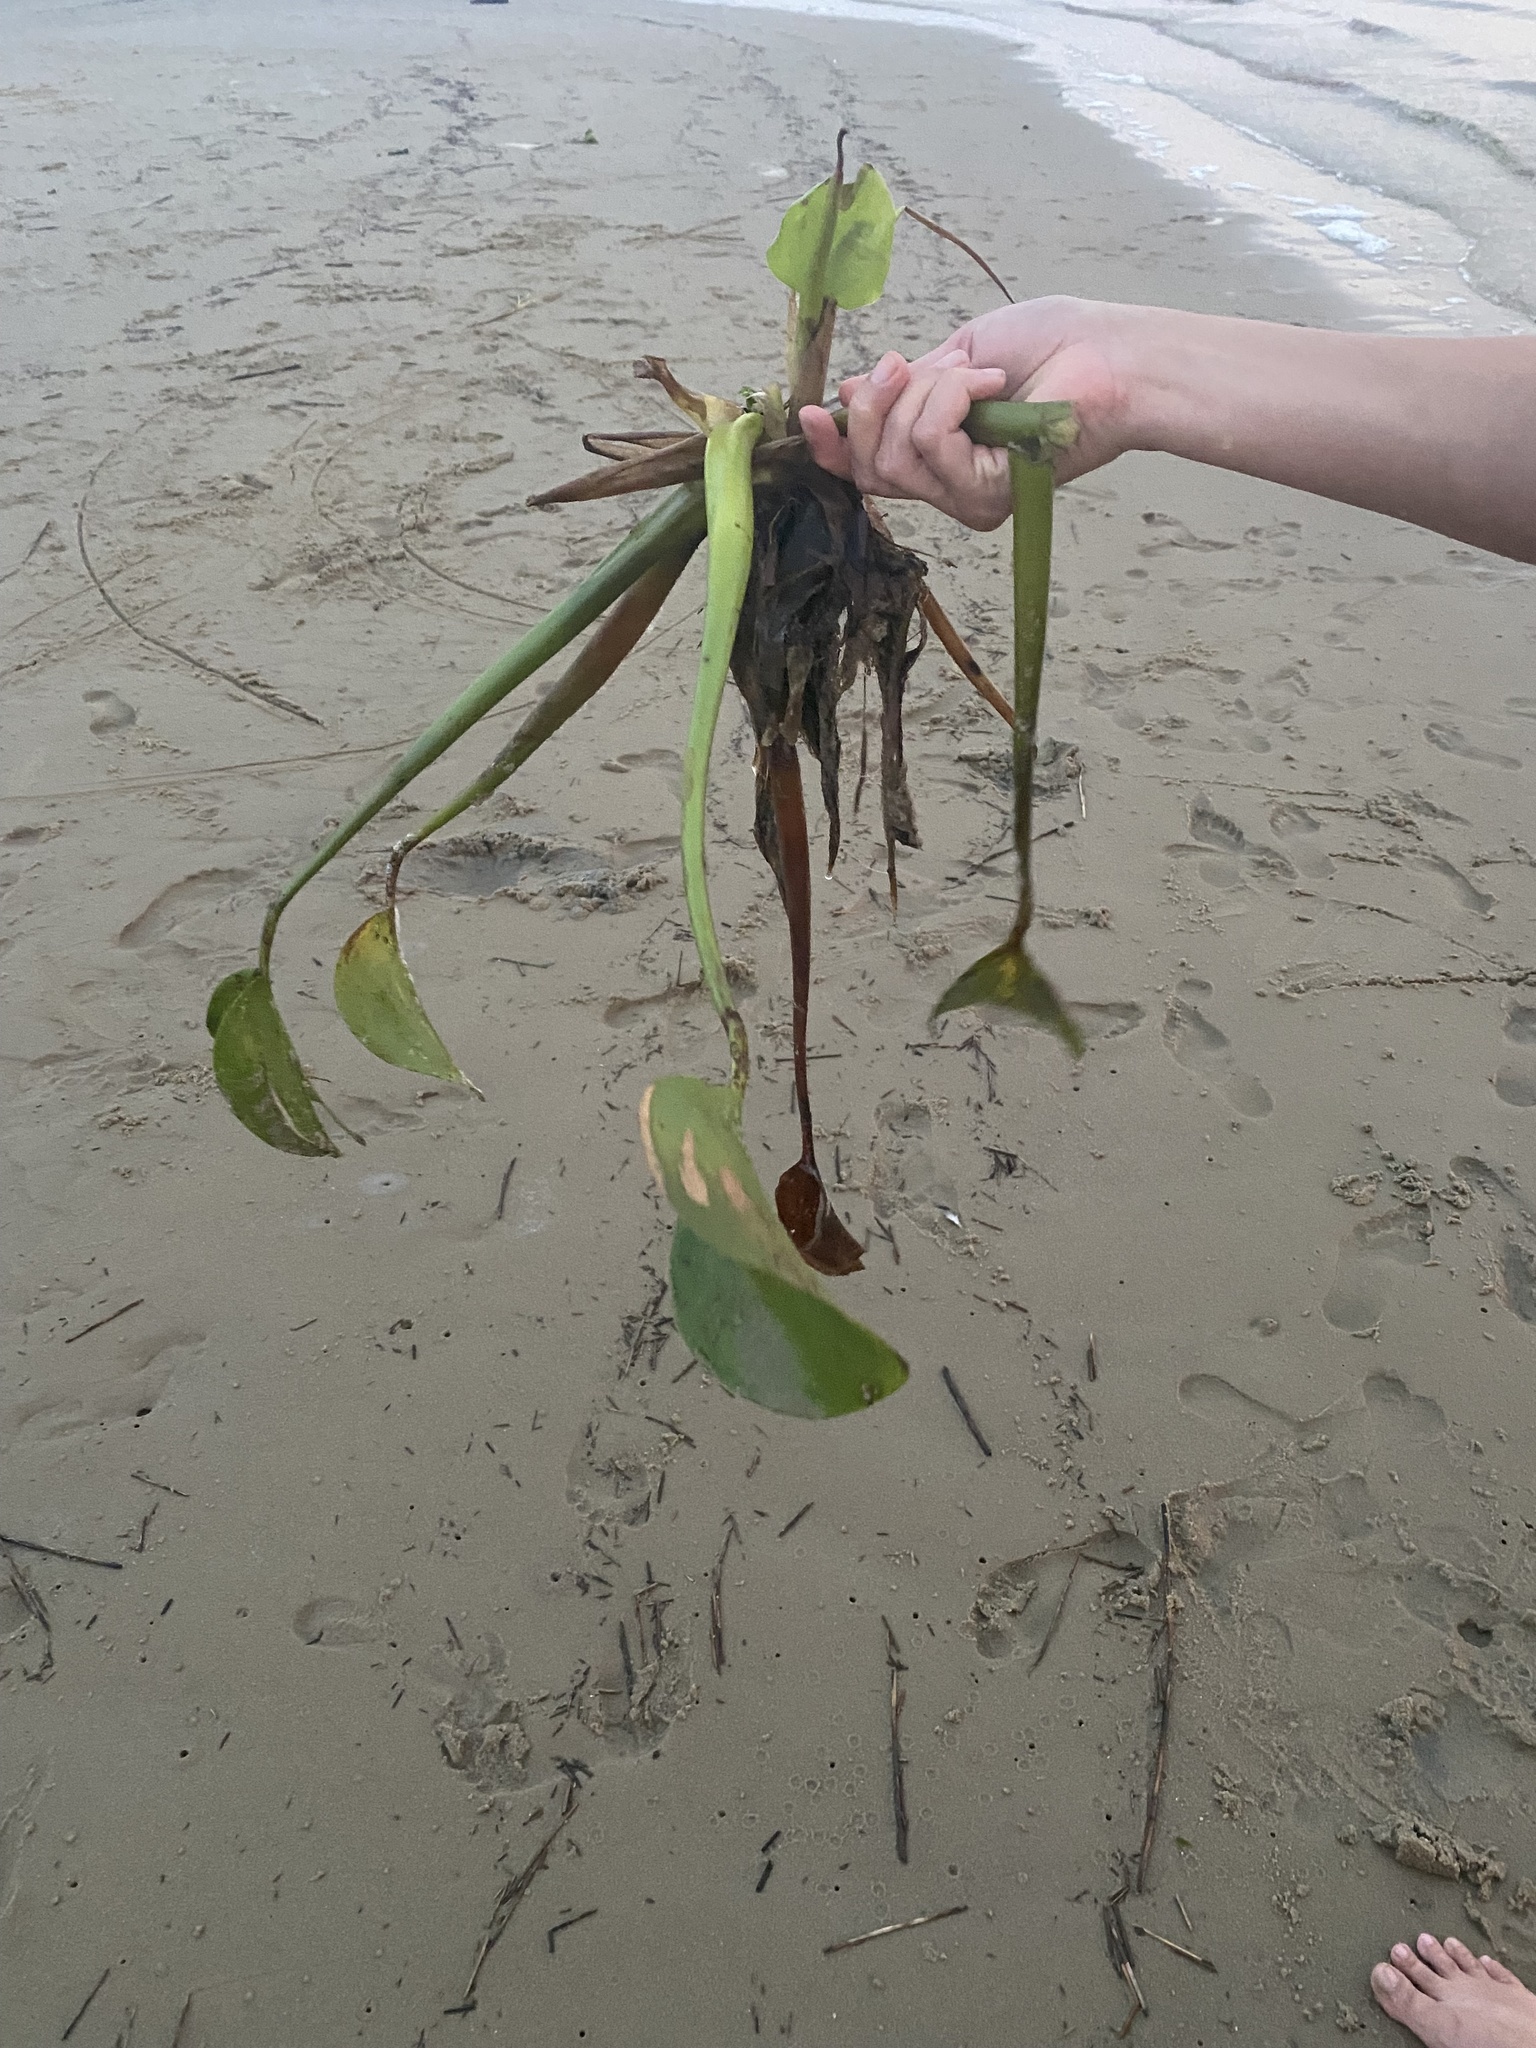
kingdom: Plantae
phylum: Tracheophyta
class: Liliopsida
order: Commelinales
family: Pontederiaceae
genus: Pontederia
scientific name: Pontederia crassipes
